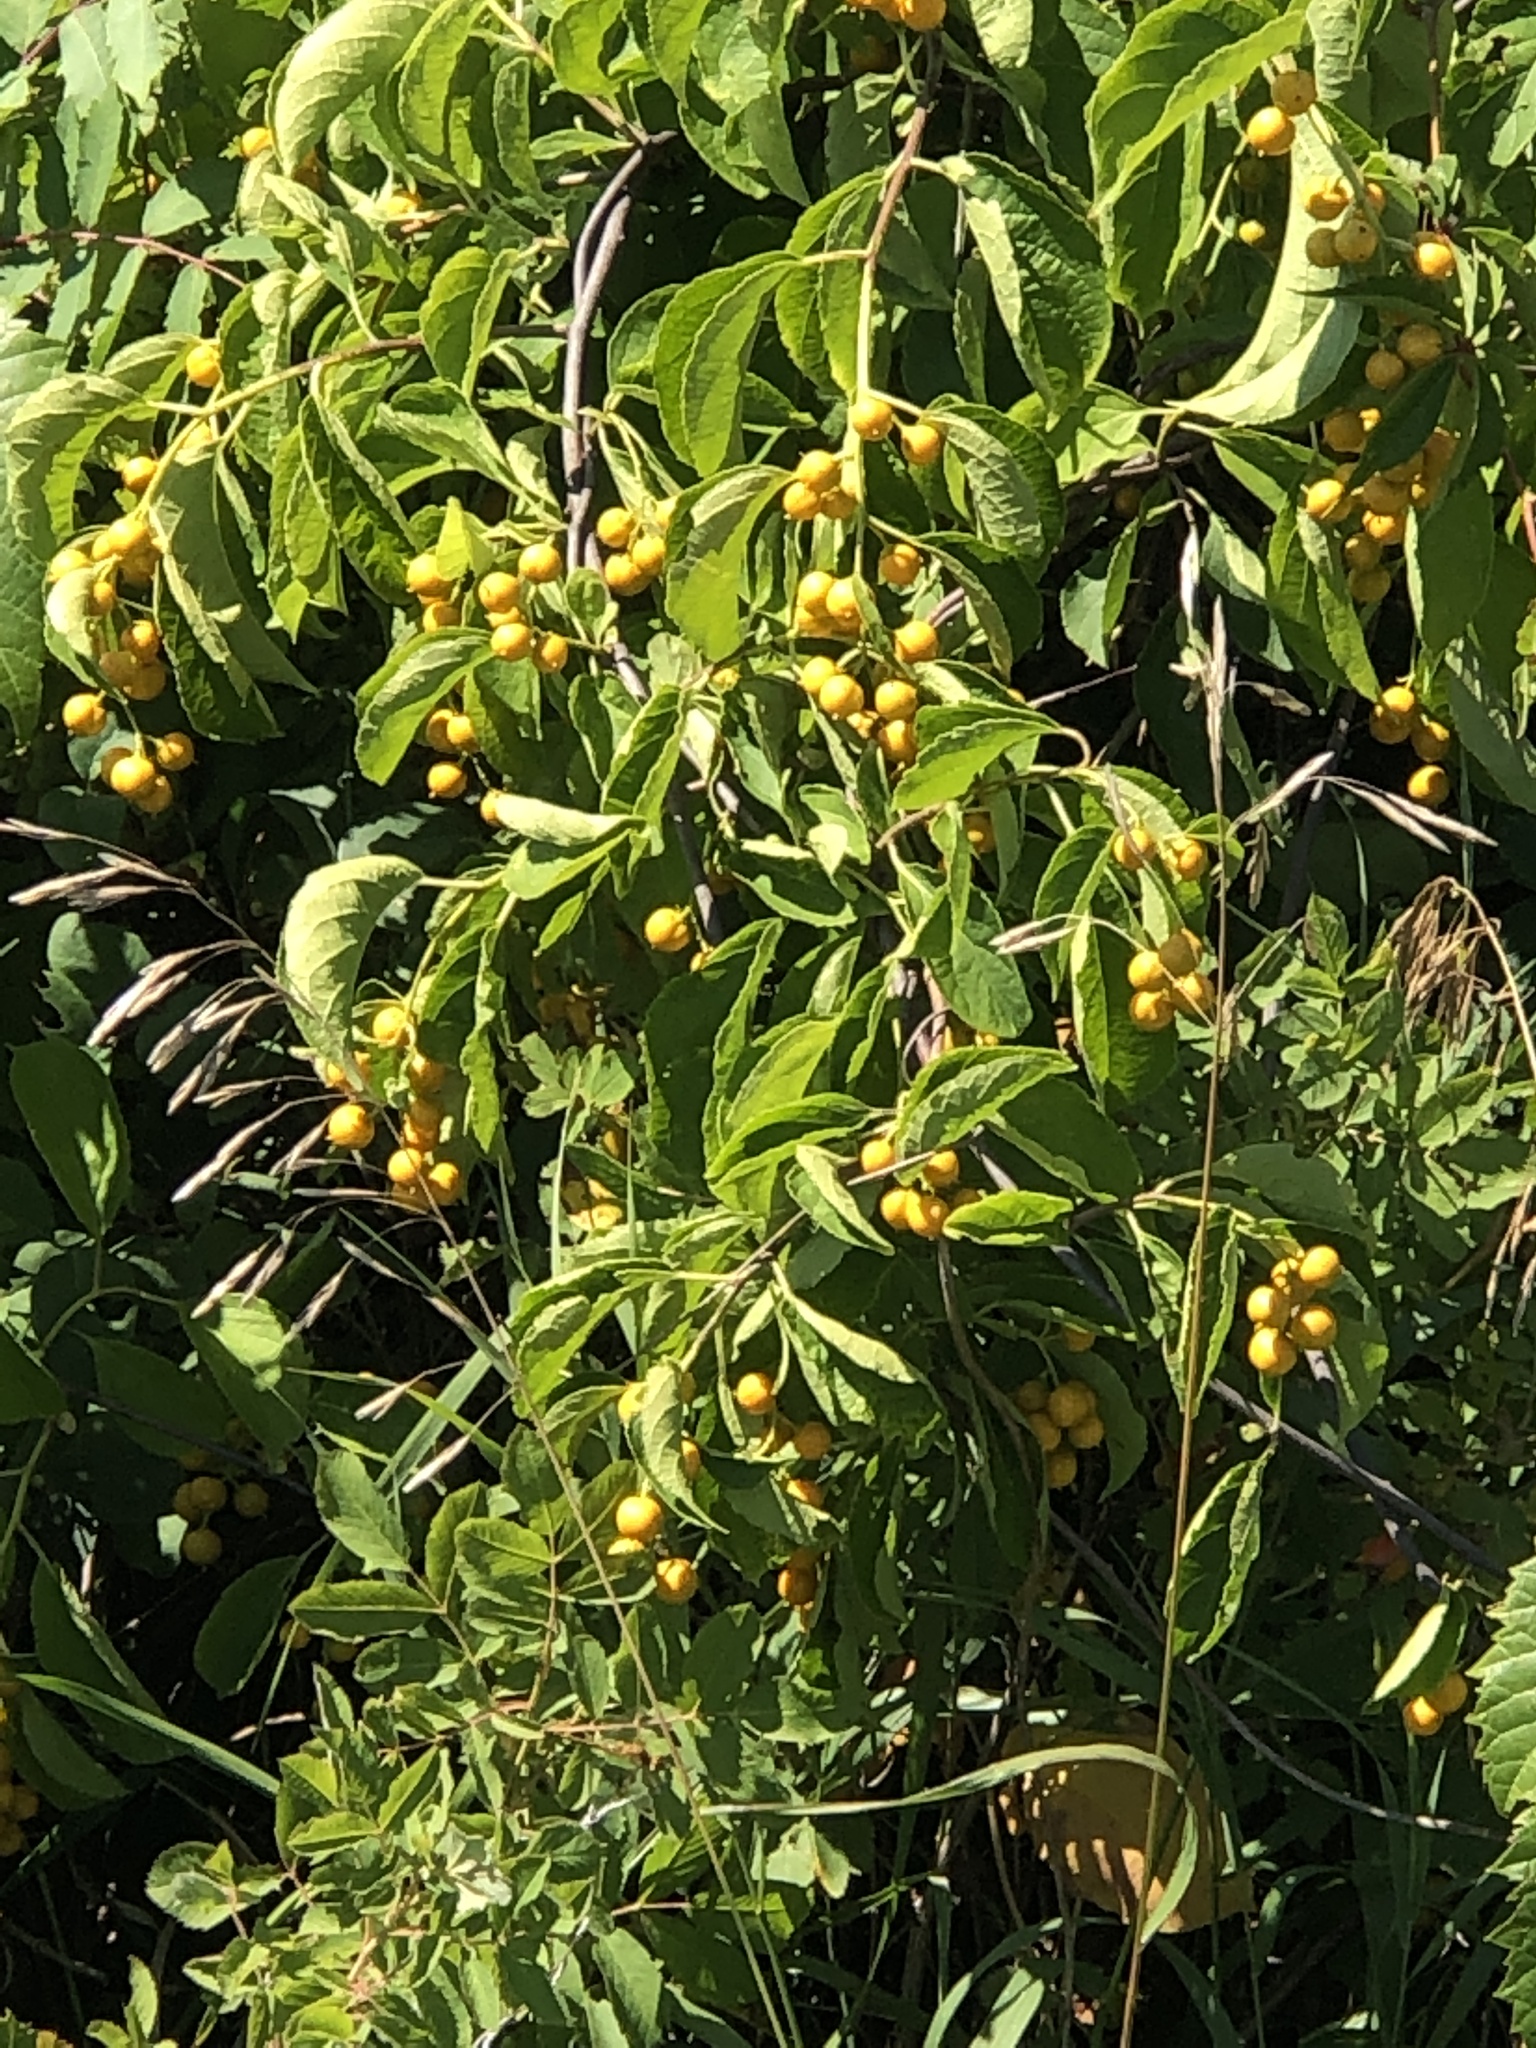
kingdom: Plantae
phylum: Tracheophyta
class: Magnoliopsida
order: Celastrales
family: Celastraceae
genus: Celastrus
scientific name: Celastrus scandens
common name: American bittersweet
